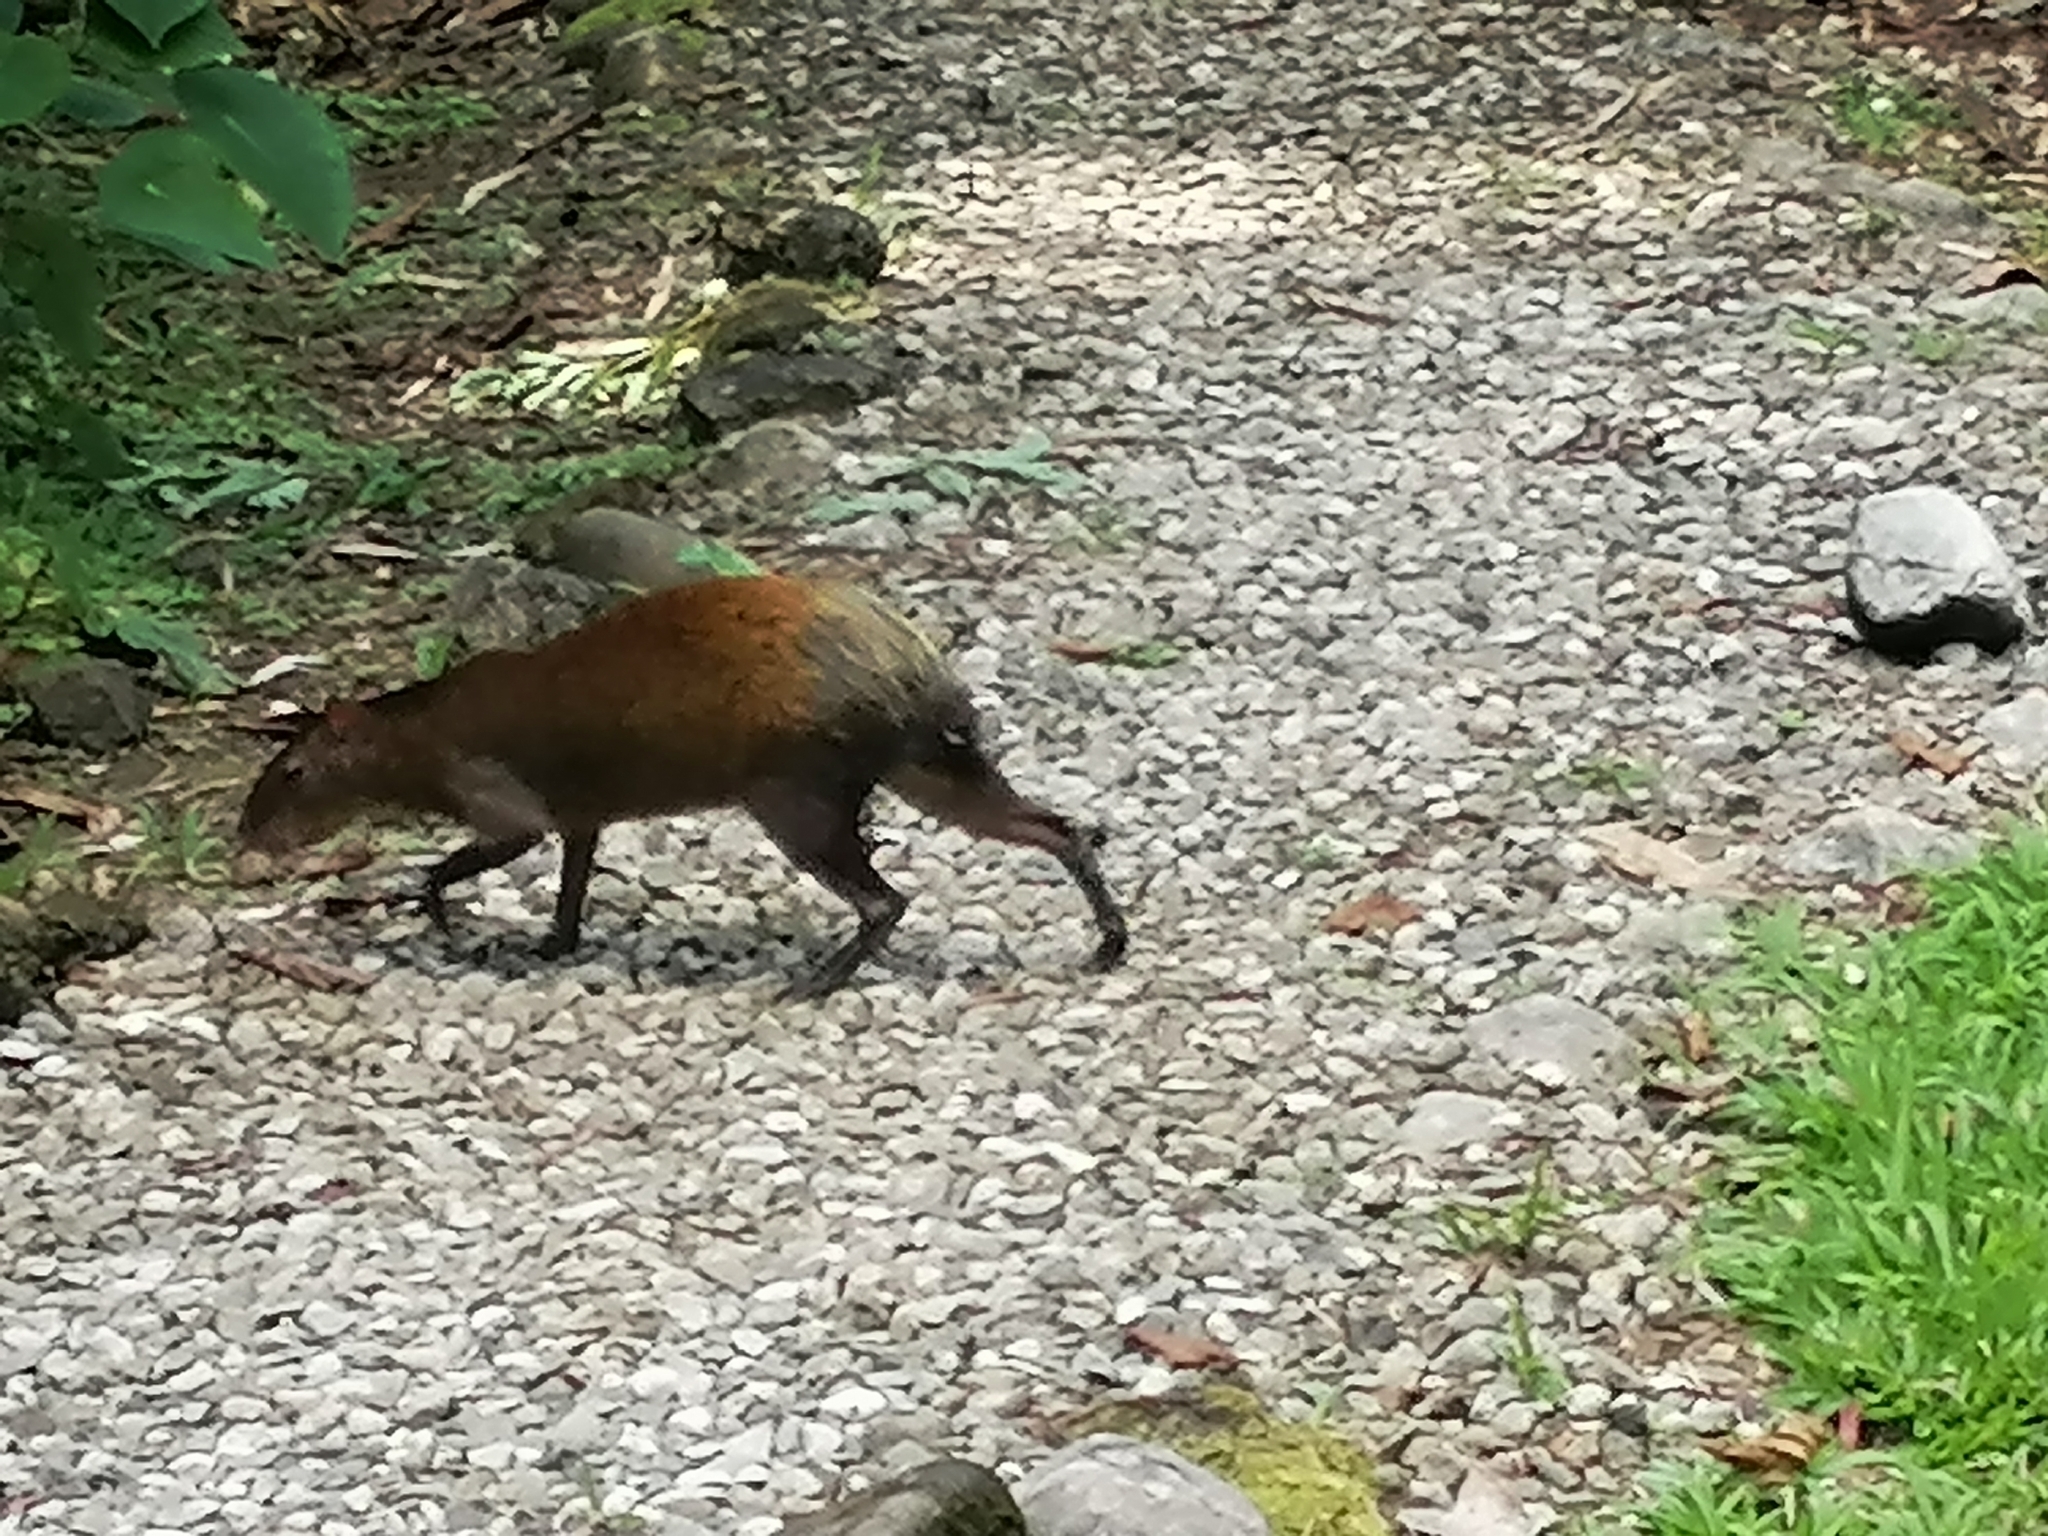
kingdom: Animalia
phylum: Chordata
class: Mammalia
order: Rodentia
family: Dasyproctidae
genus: Dasyprocta
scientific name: Dasyprocta punctata
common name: Central american agouti
